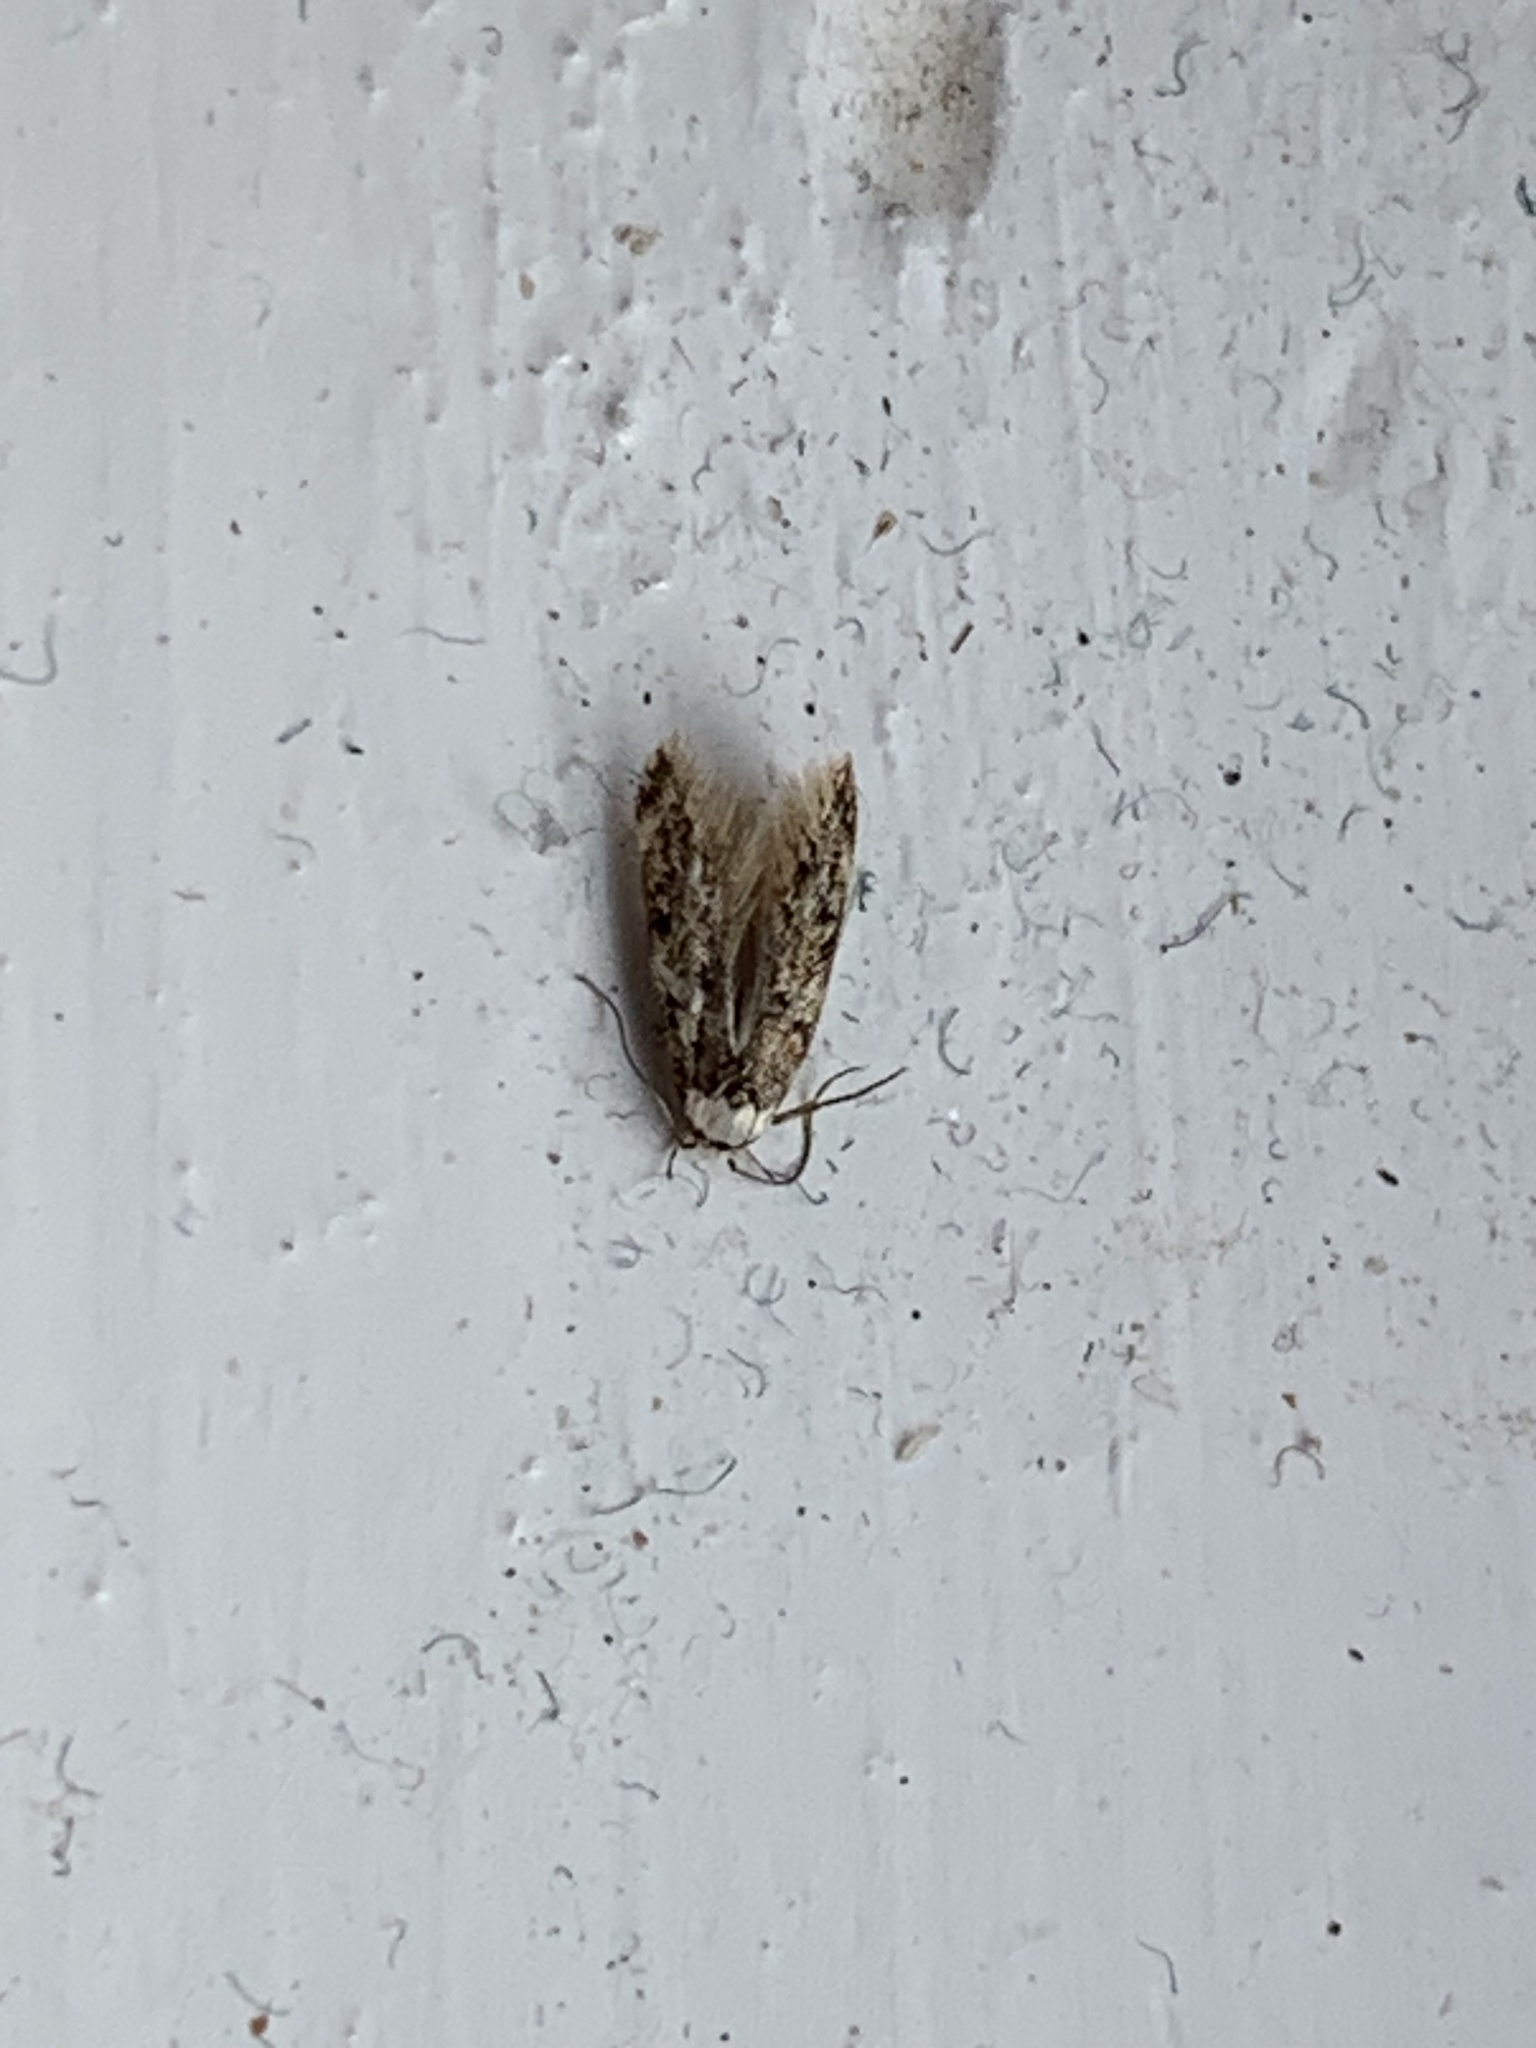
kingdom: Animalia
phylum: Arthropoda
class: Insecta
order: Lepidoptera
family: Oecophoridae
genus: Endrosis
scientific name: Endrosis sarcitrella
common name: White-shouldered house moth
